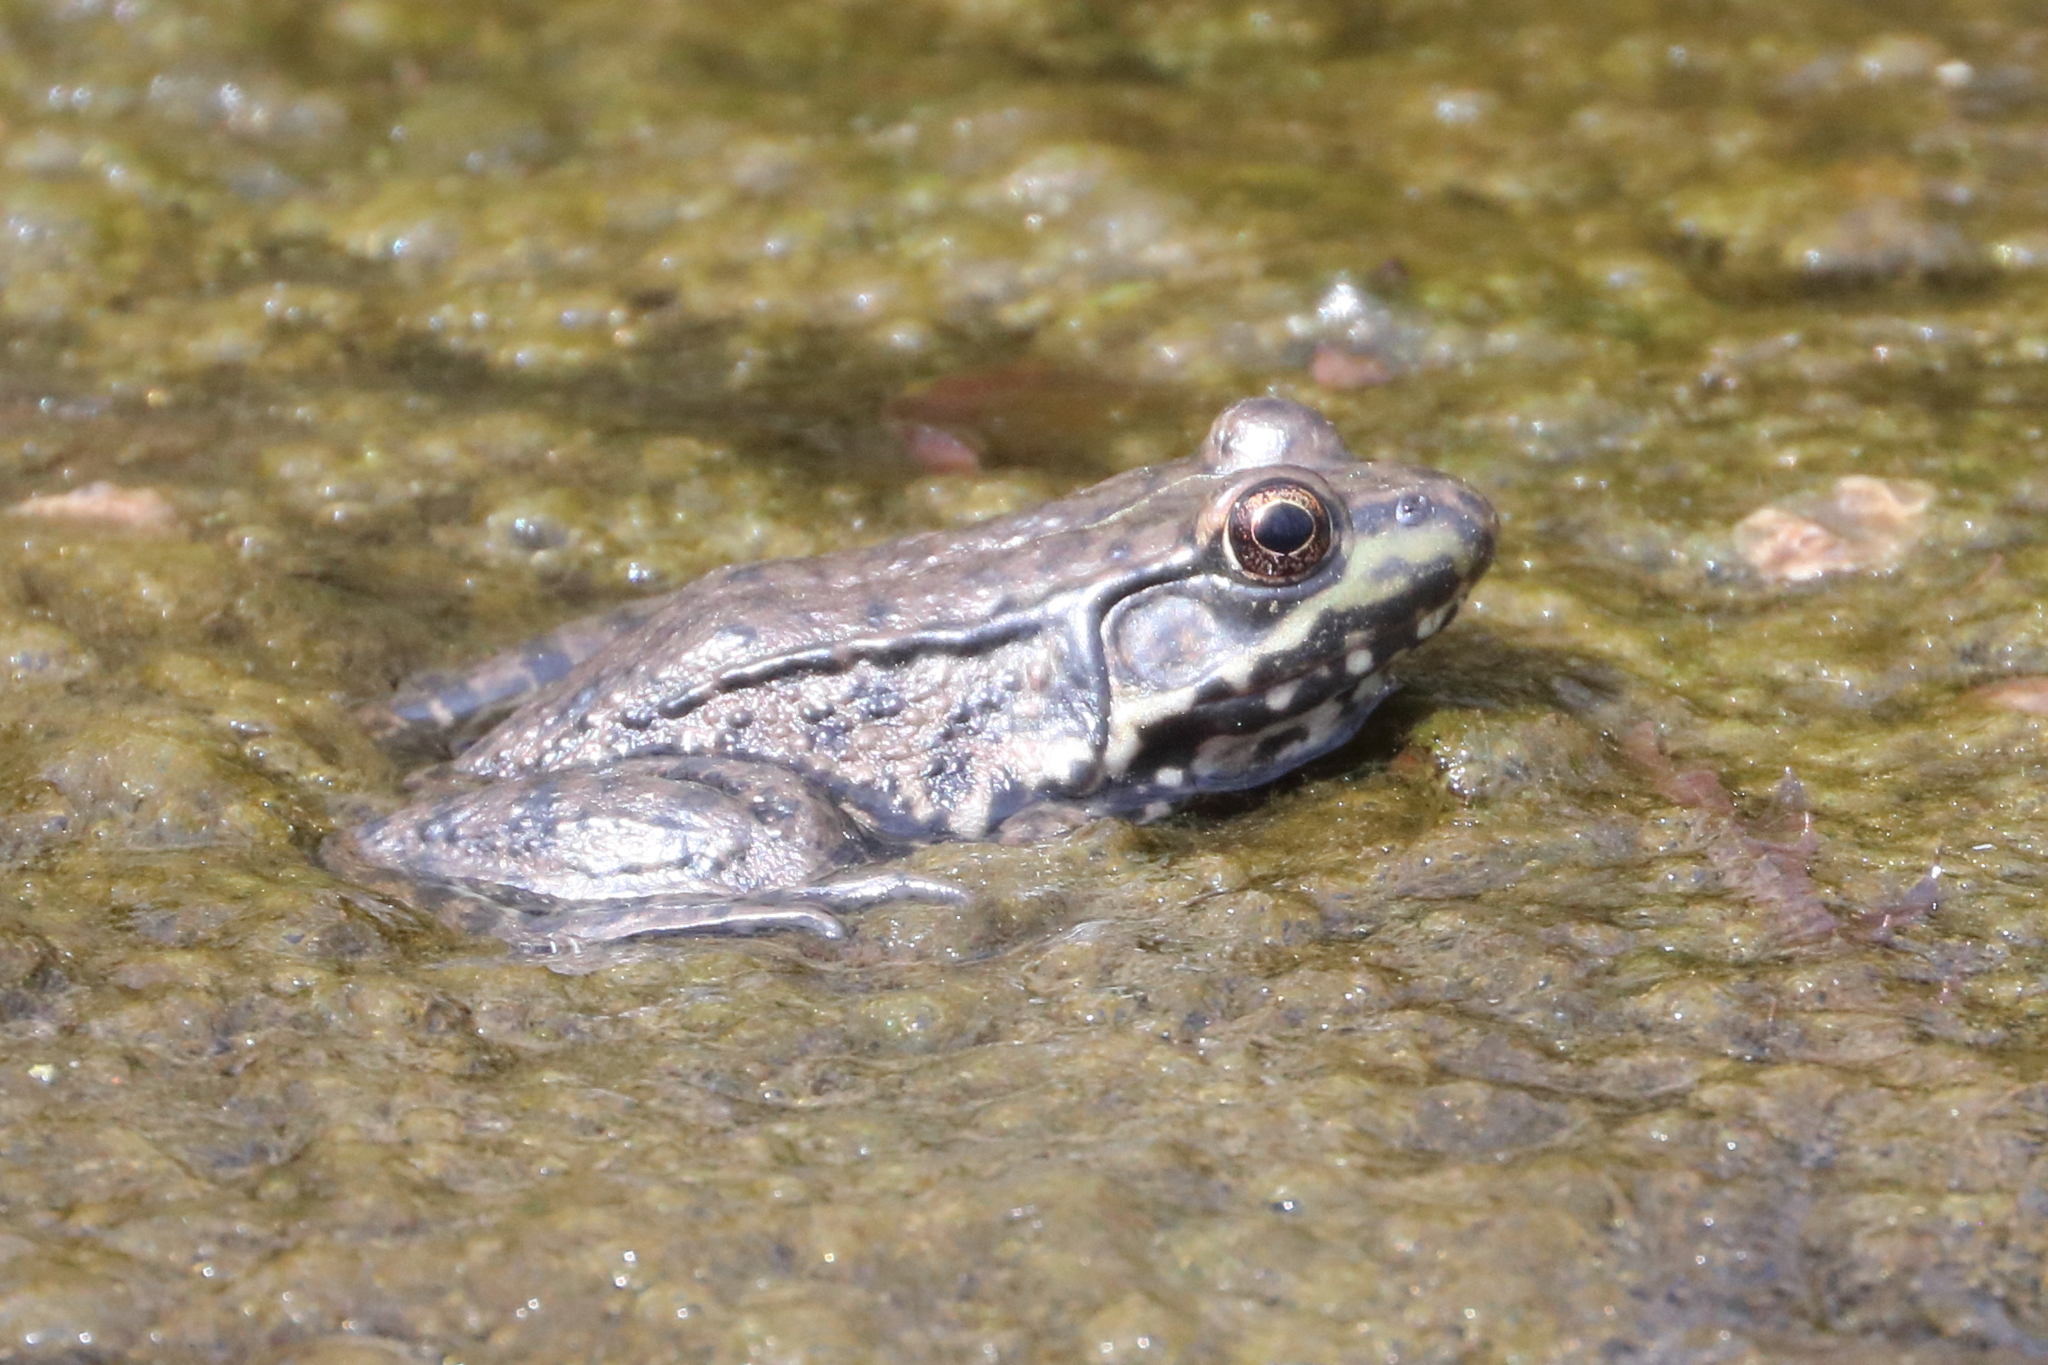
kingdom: Animalia
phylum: Chordata
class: Amphibia
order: Anura
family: Ranidae
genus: Lithobates
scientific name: Lithobates clamitans
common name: Green frog
